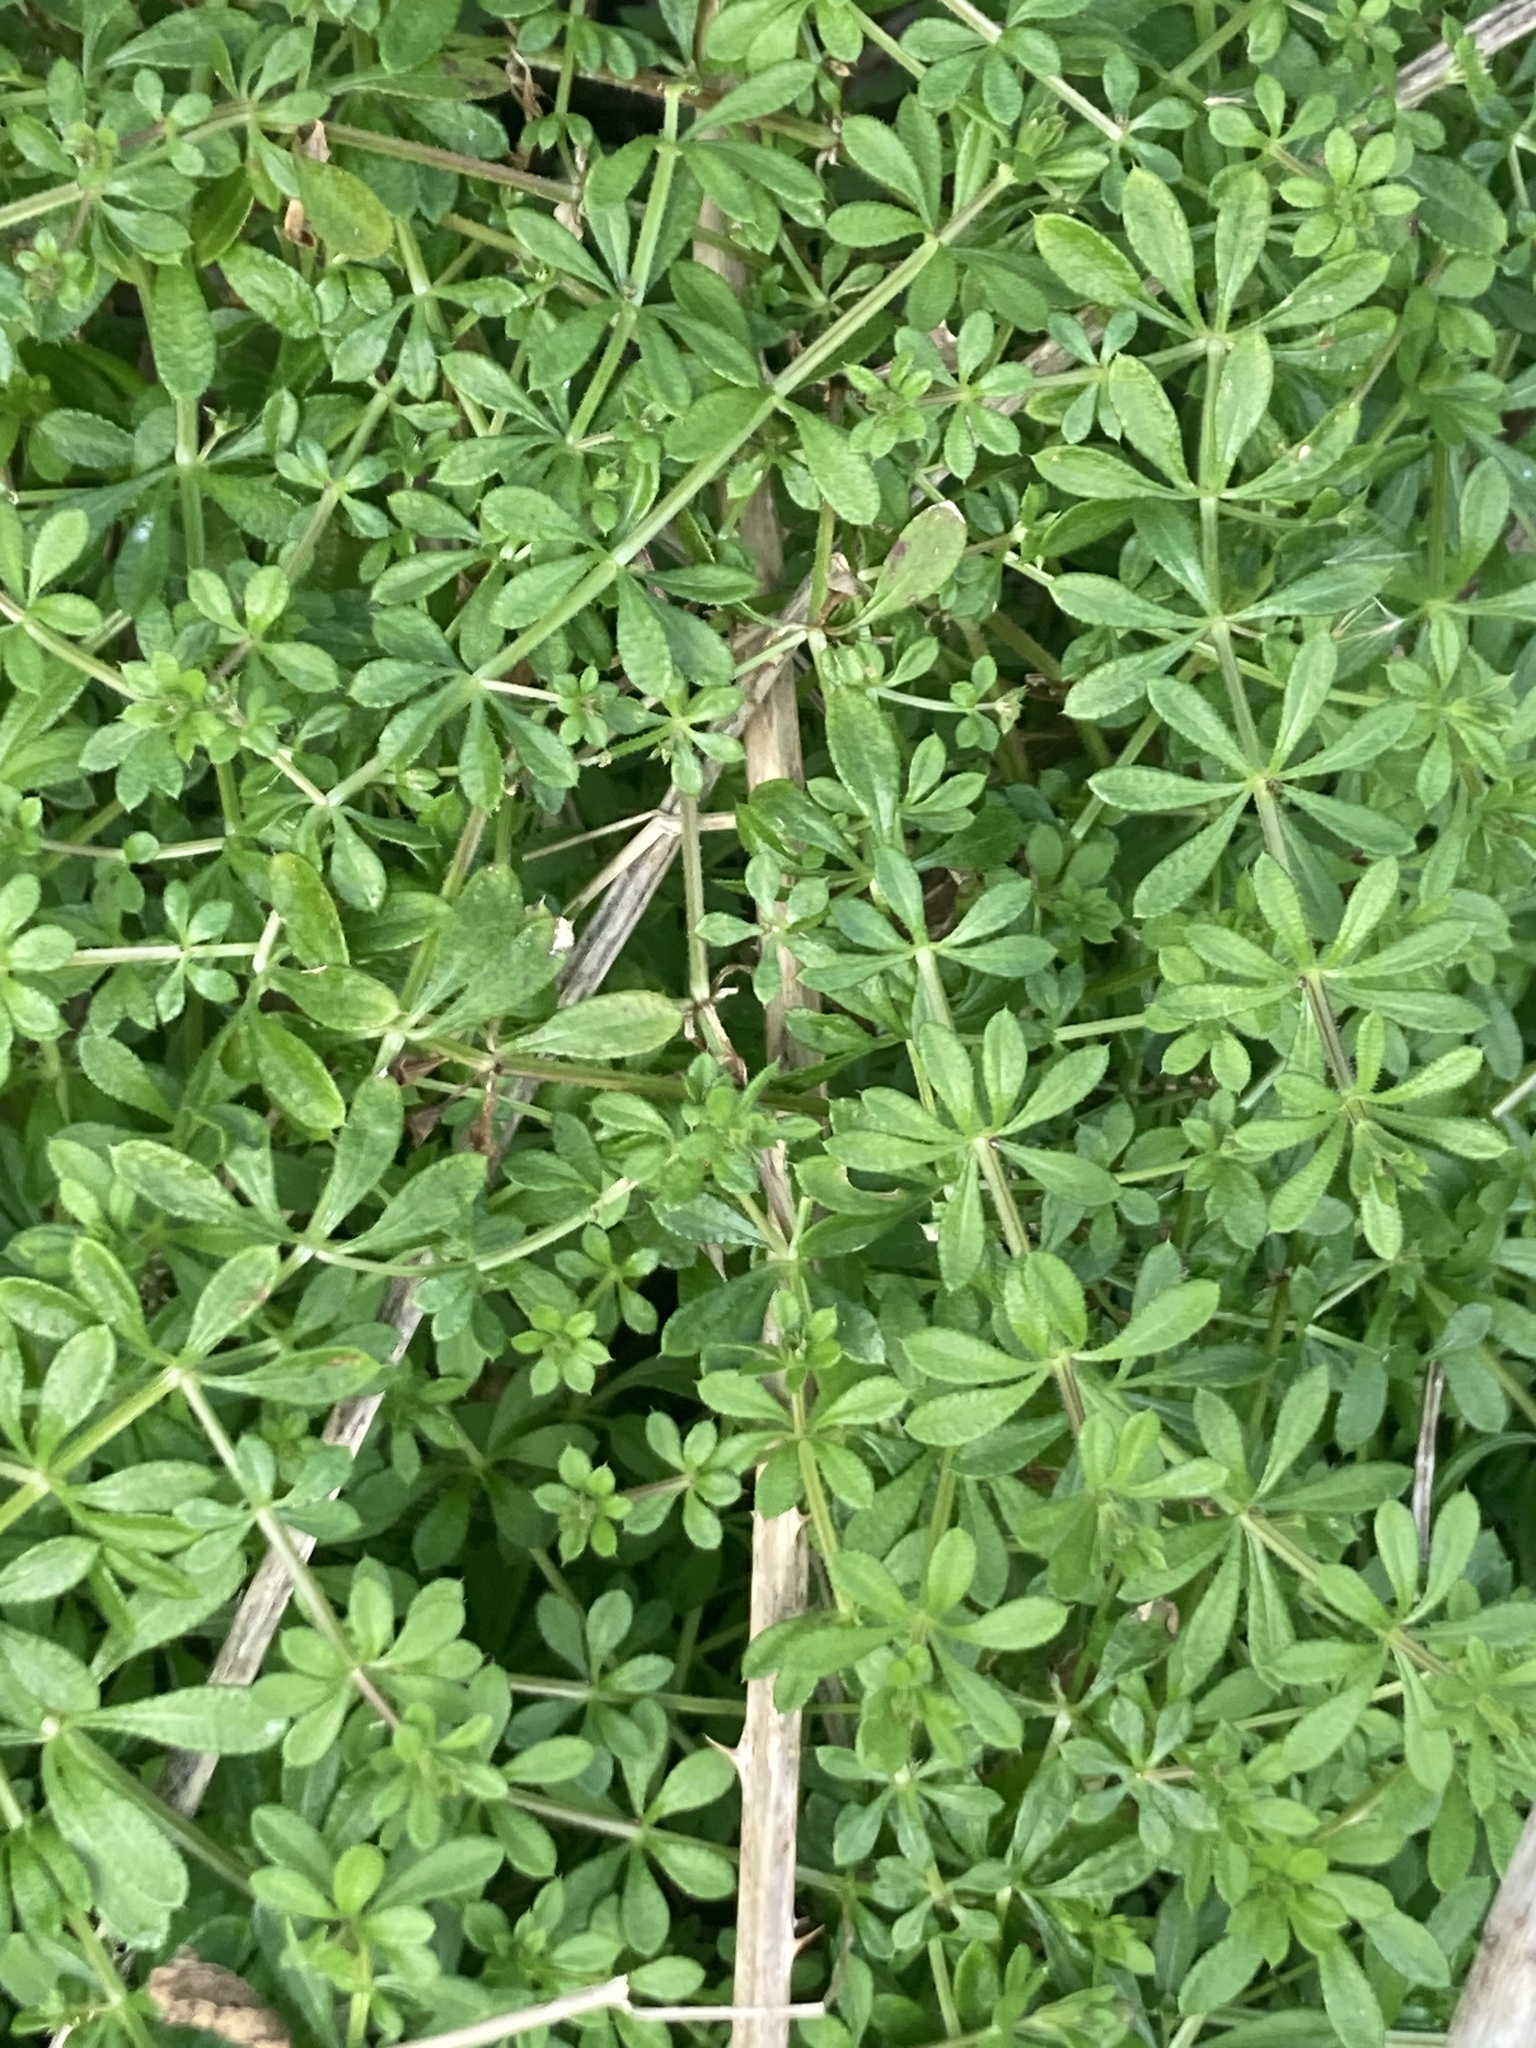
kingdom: Plantae
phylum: Tracheophyta
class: Magnoliopsida
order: Gentianales
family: Rubiaceae
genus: Galium
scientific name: Galium aparine
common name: Cleavers
